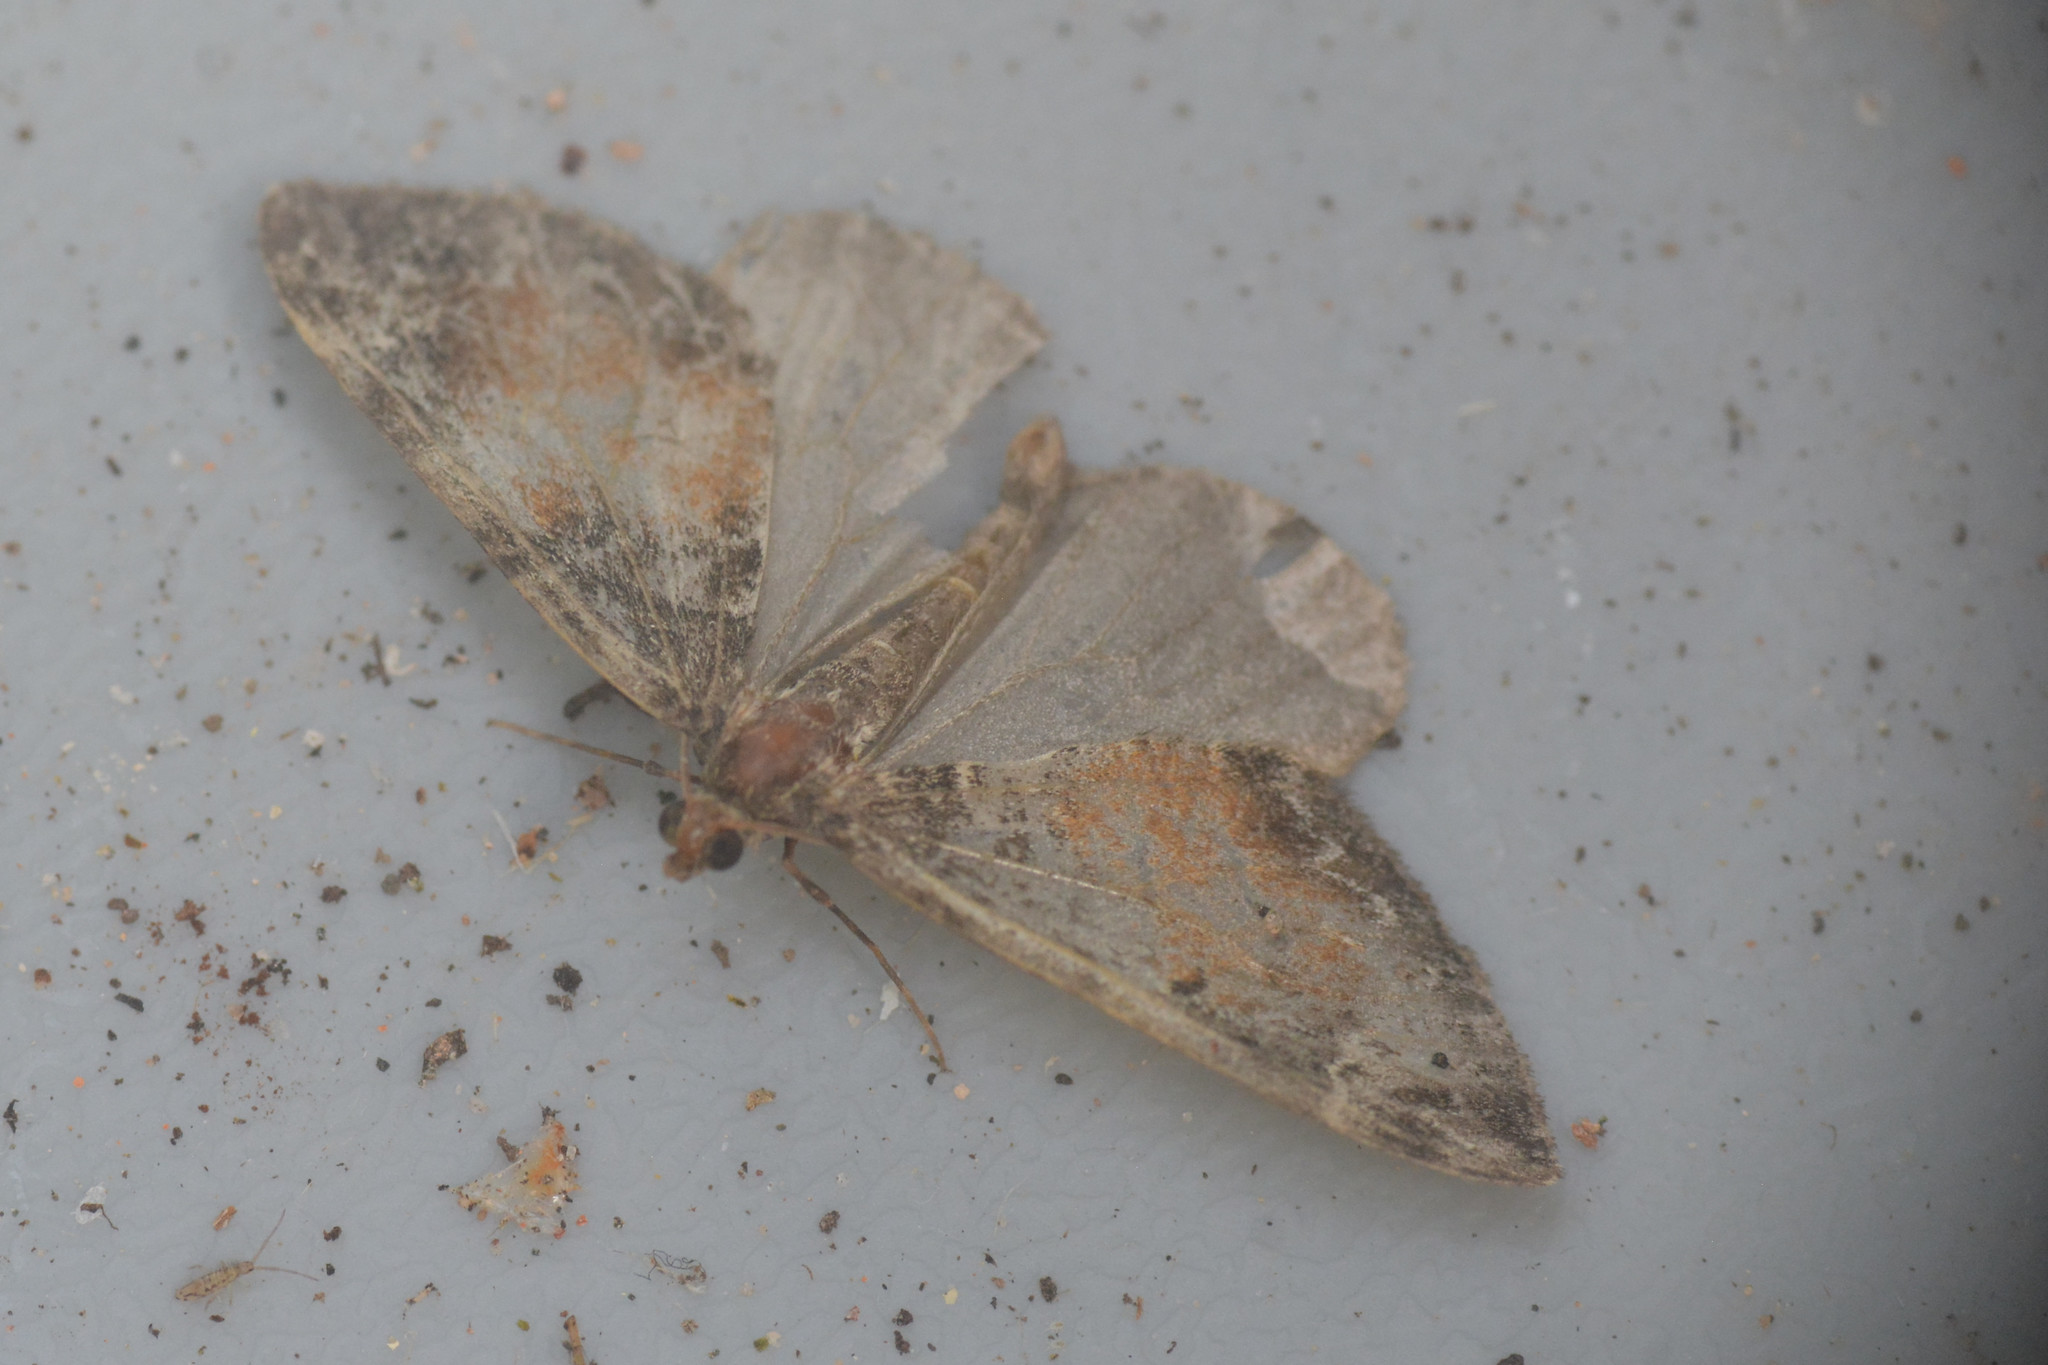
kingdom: Animalia
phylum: Arthropoda
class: Insecta
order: Lepidoptera
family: Geometridae
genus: Dysstroma
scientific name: Dysstroma truncata
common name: Common marbled carpet
